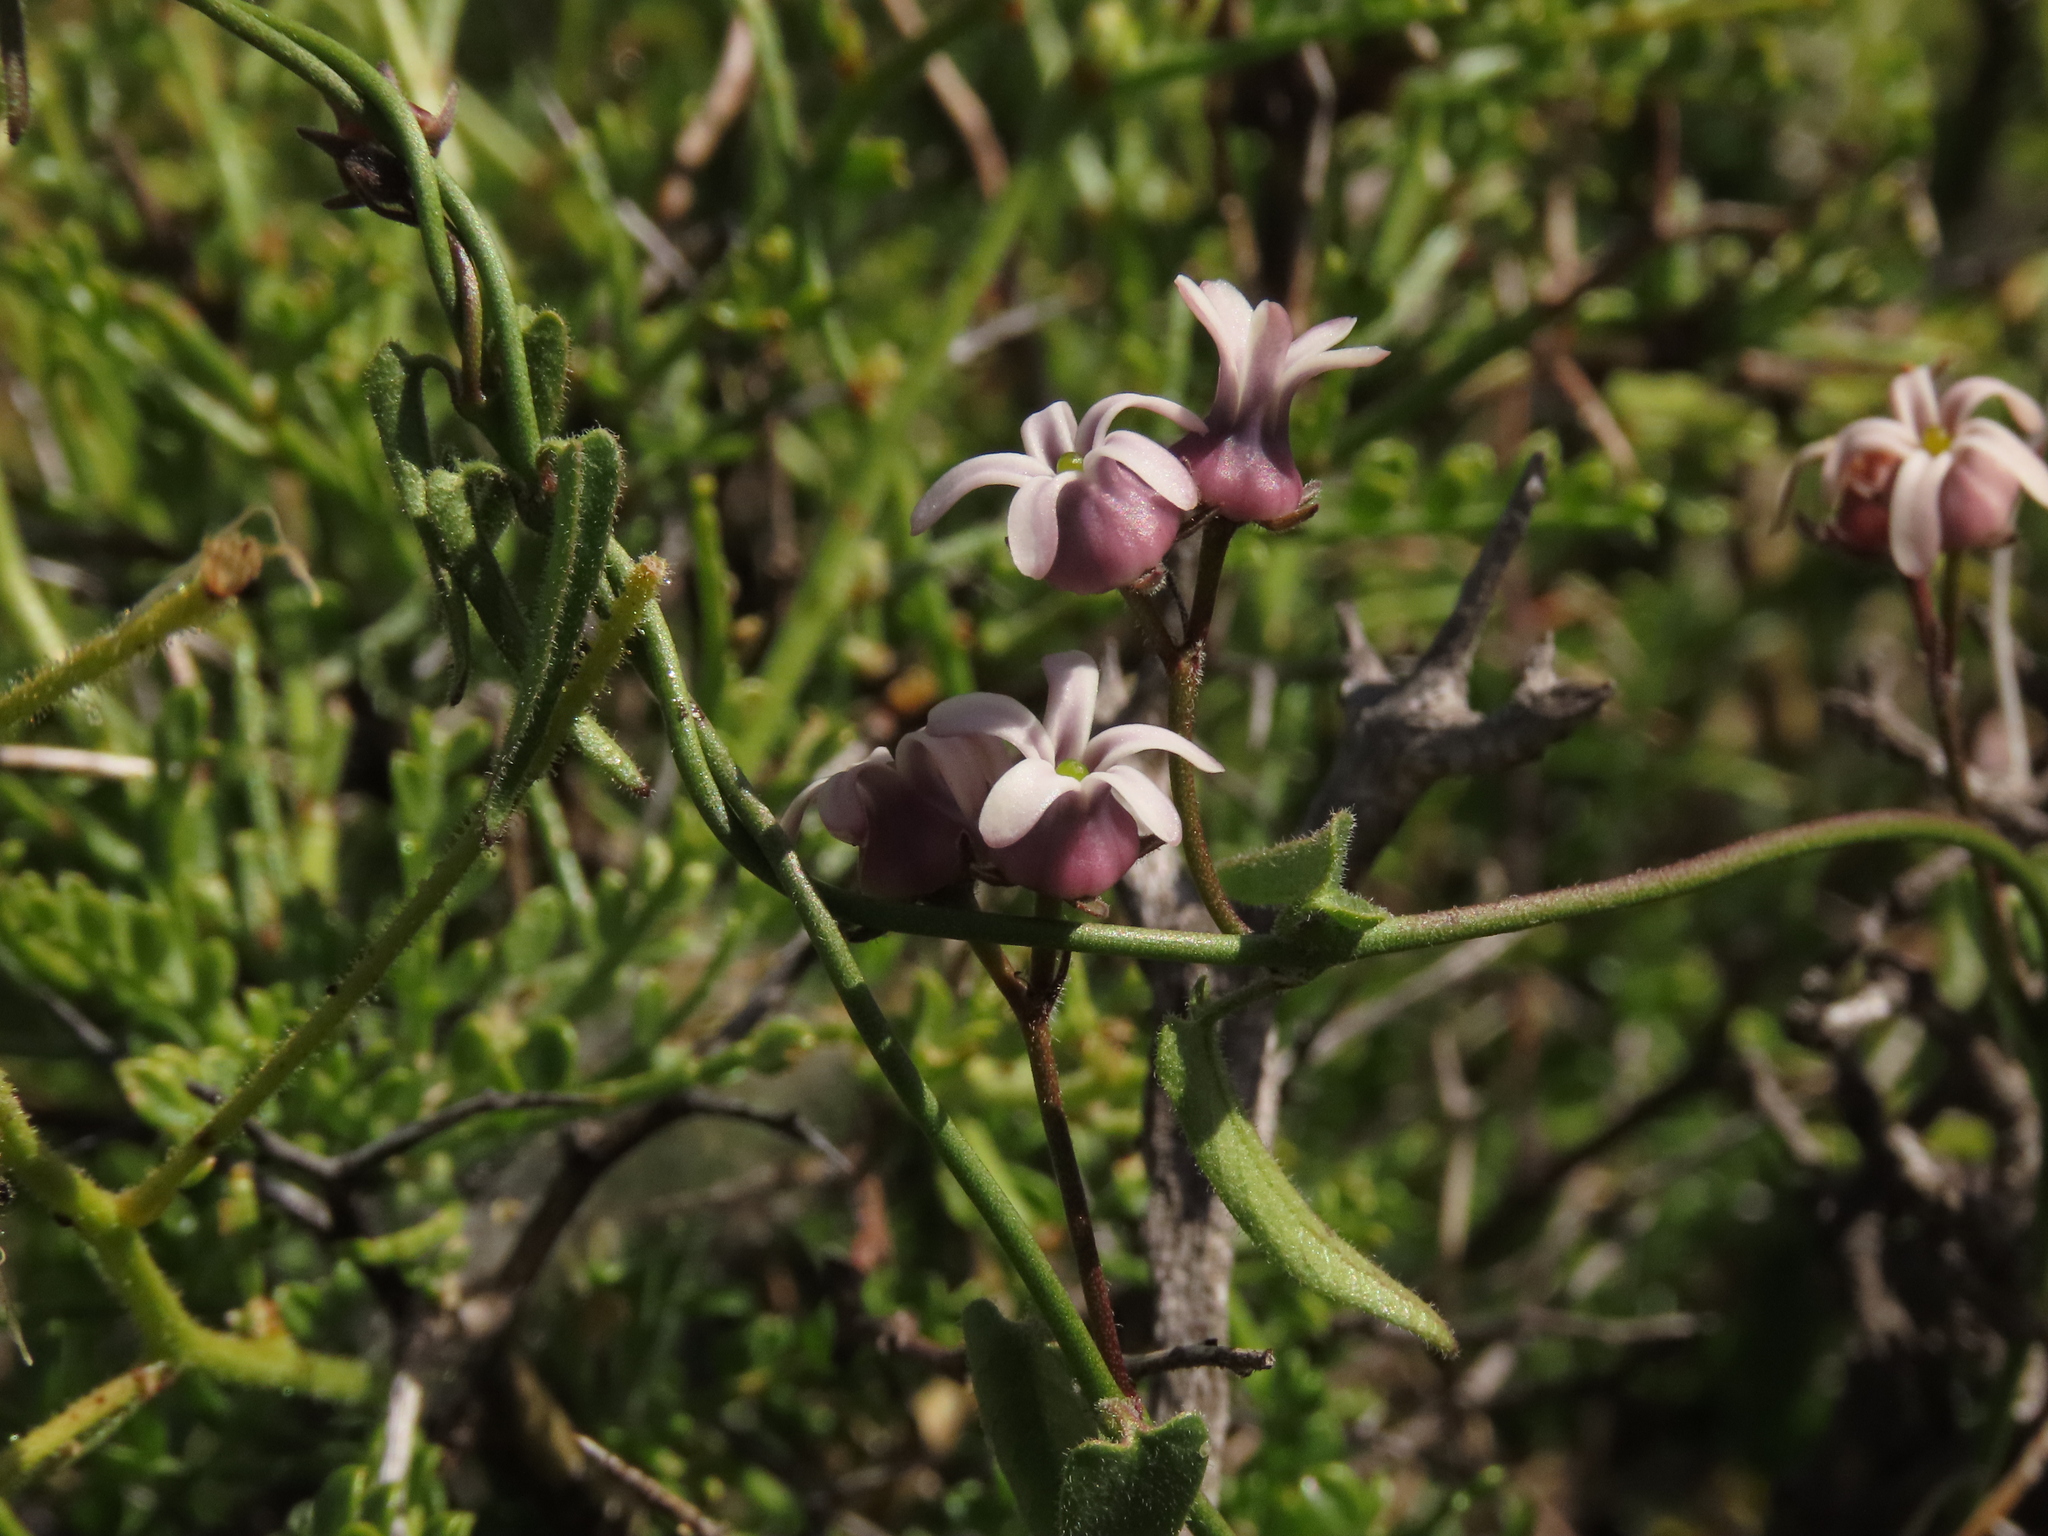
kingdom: Plantae
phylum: Tracheophyta
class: Magnoliopsida
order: Gentianales
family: Apocynaceae
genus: Diplolepis
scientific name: Diplolepis geminiflora
